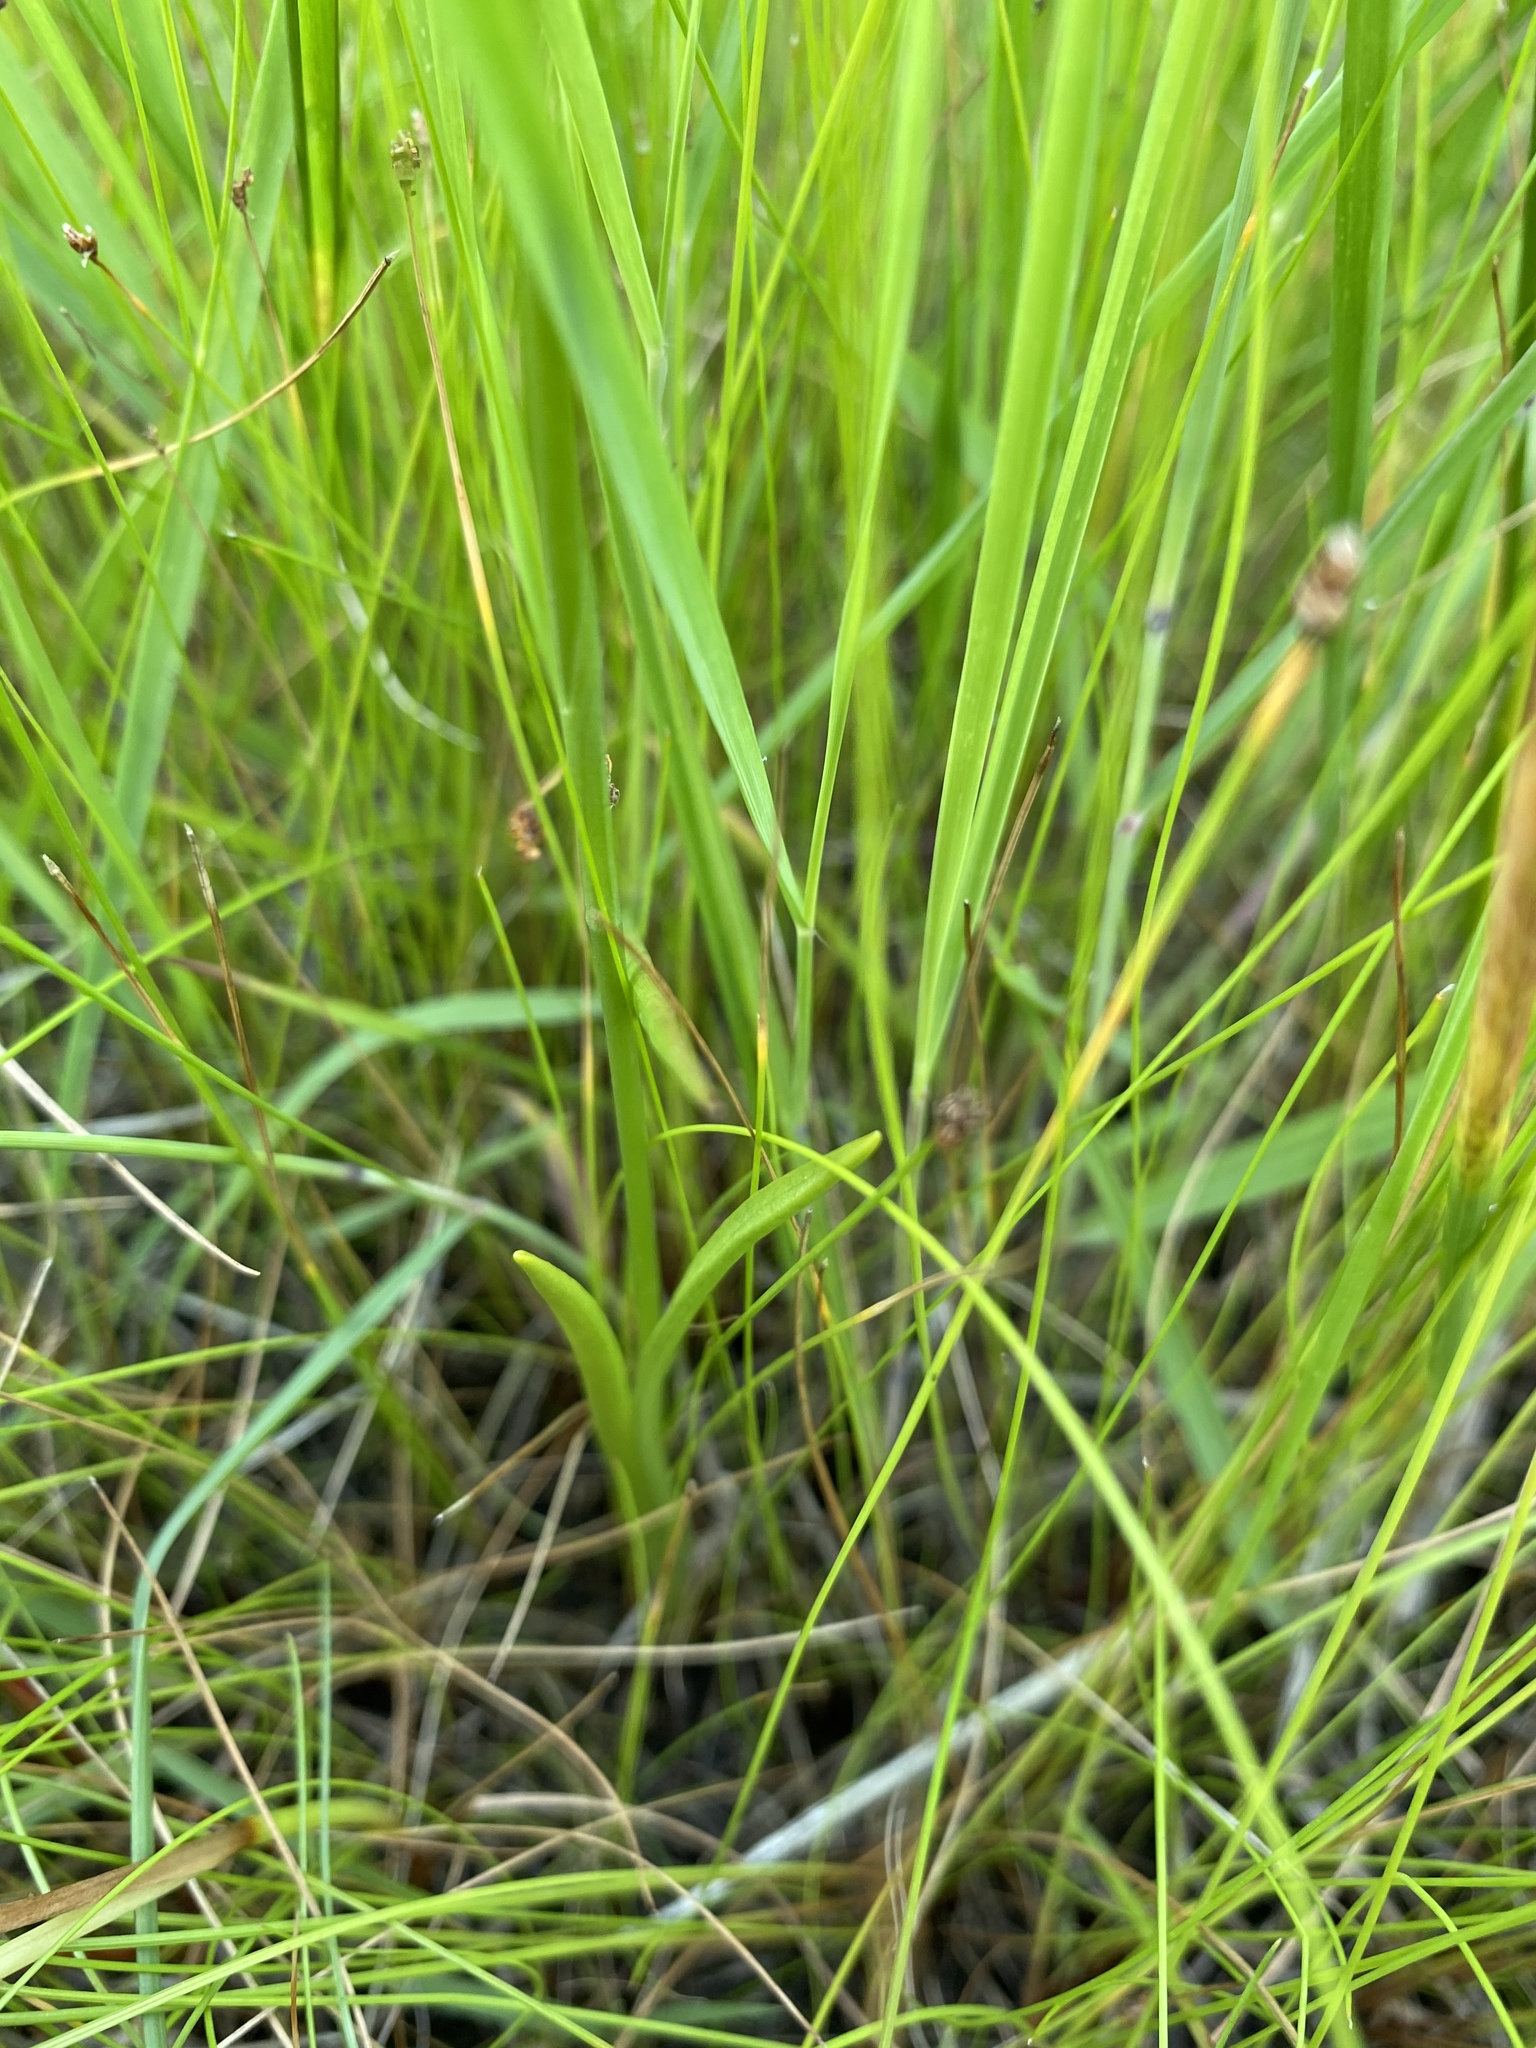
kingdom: Plantae
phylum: Tracheophyta
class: Liliopsida
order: Asparagales
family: Orchidaceae
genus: Spiranthes
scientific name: Spiranthes vernalis
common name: Spring ladies'-tresses
